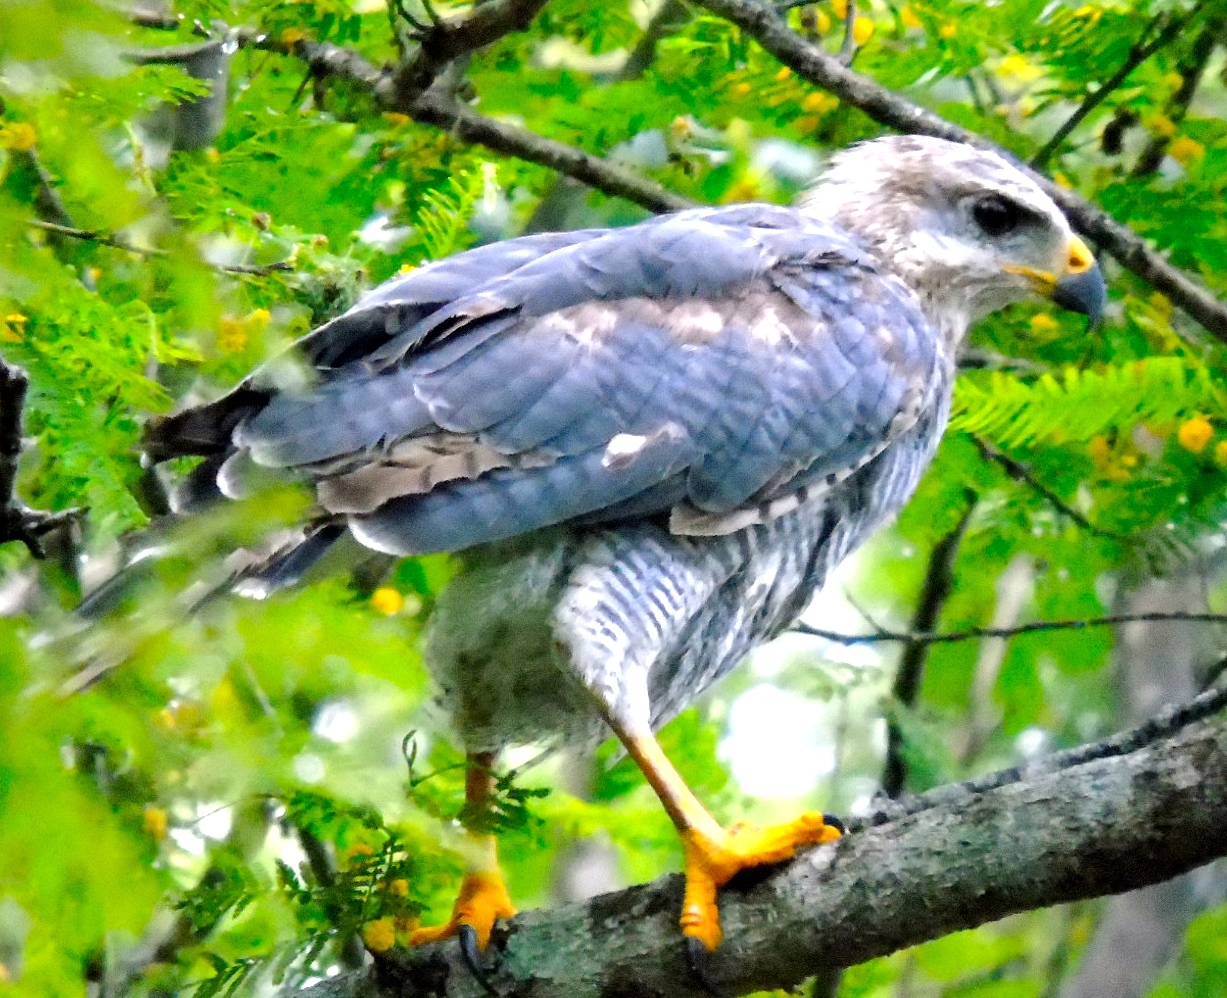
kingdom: Animalia
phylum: Chordata
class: Aves
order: Accipitriformes
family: Accipitridae
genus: Buteo
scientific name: Buteo nitidus
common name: Grey-lined hawk
